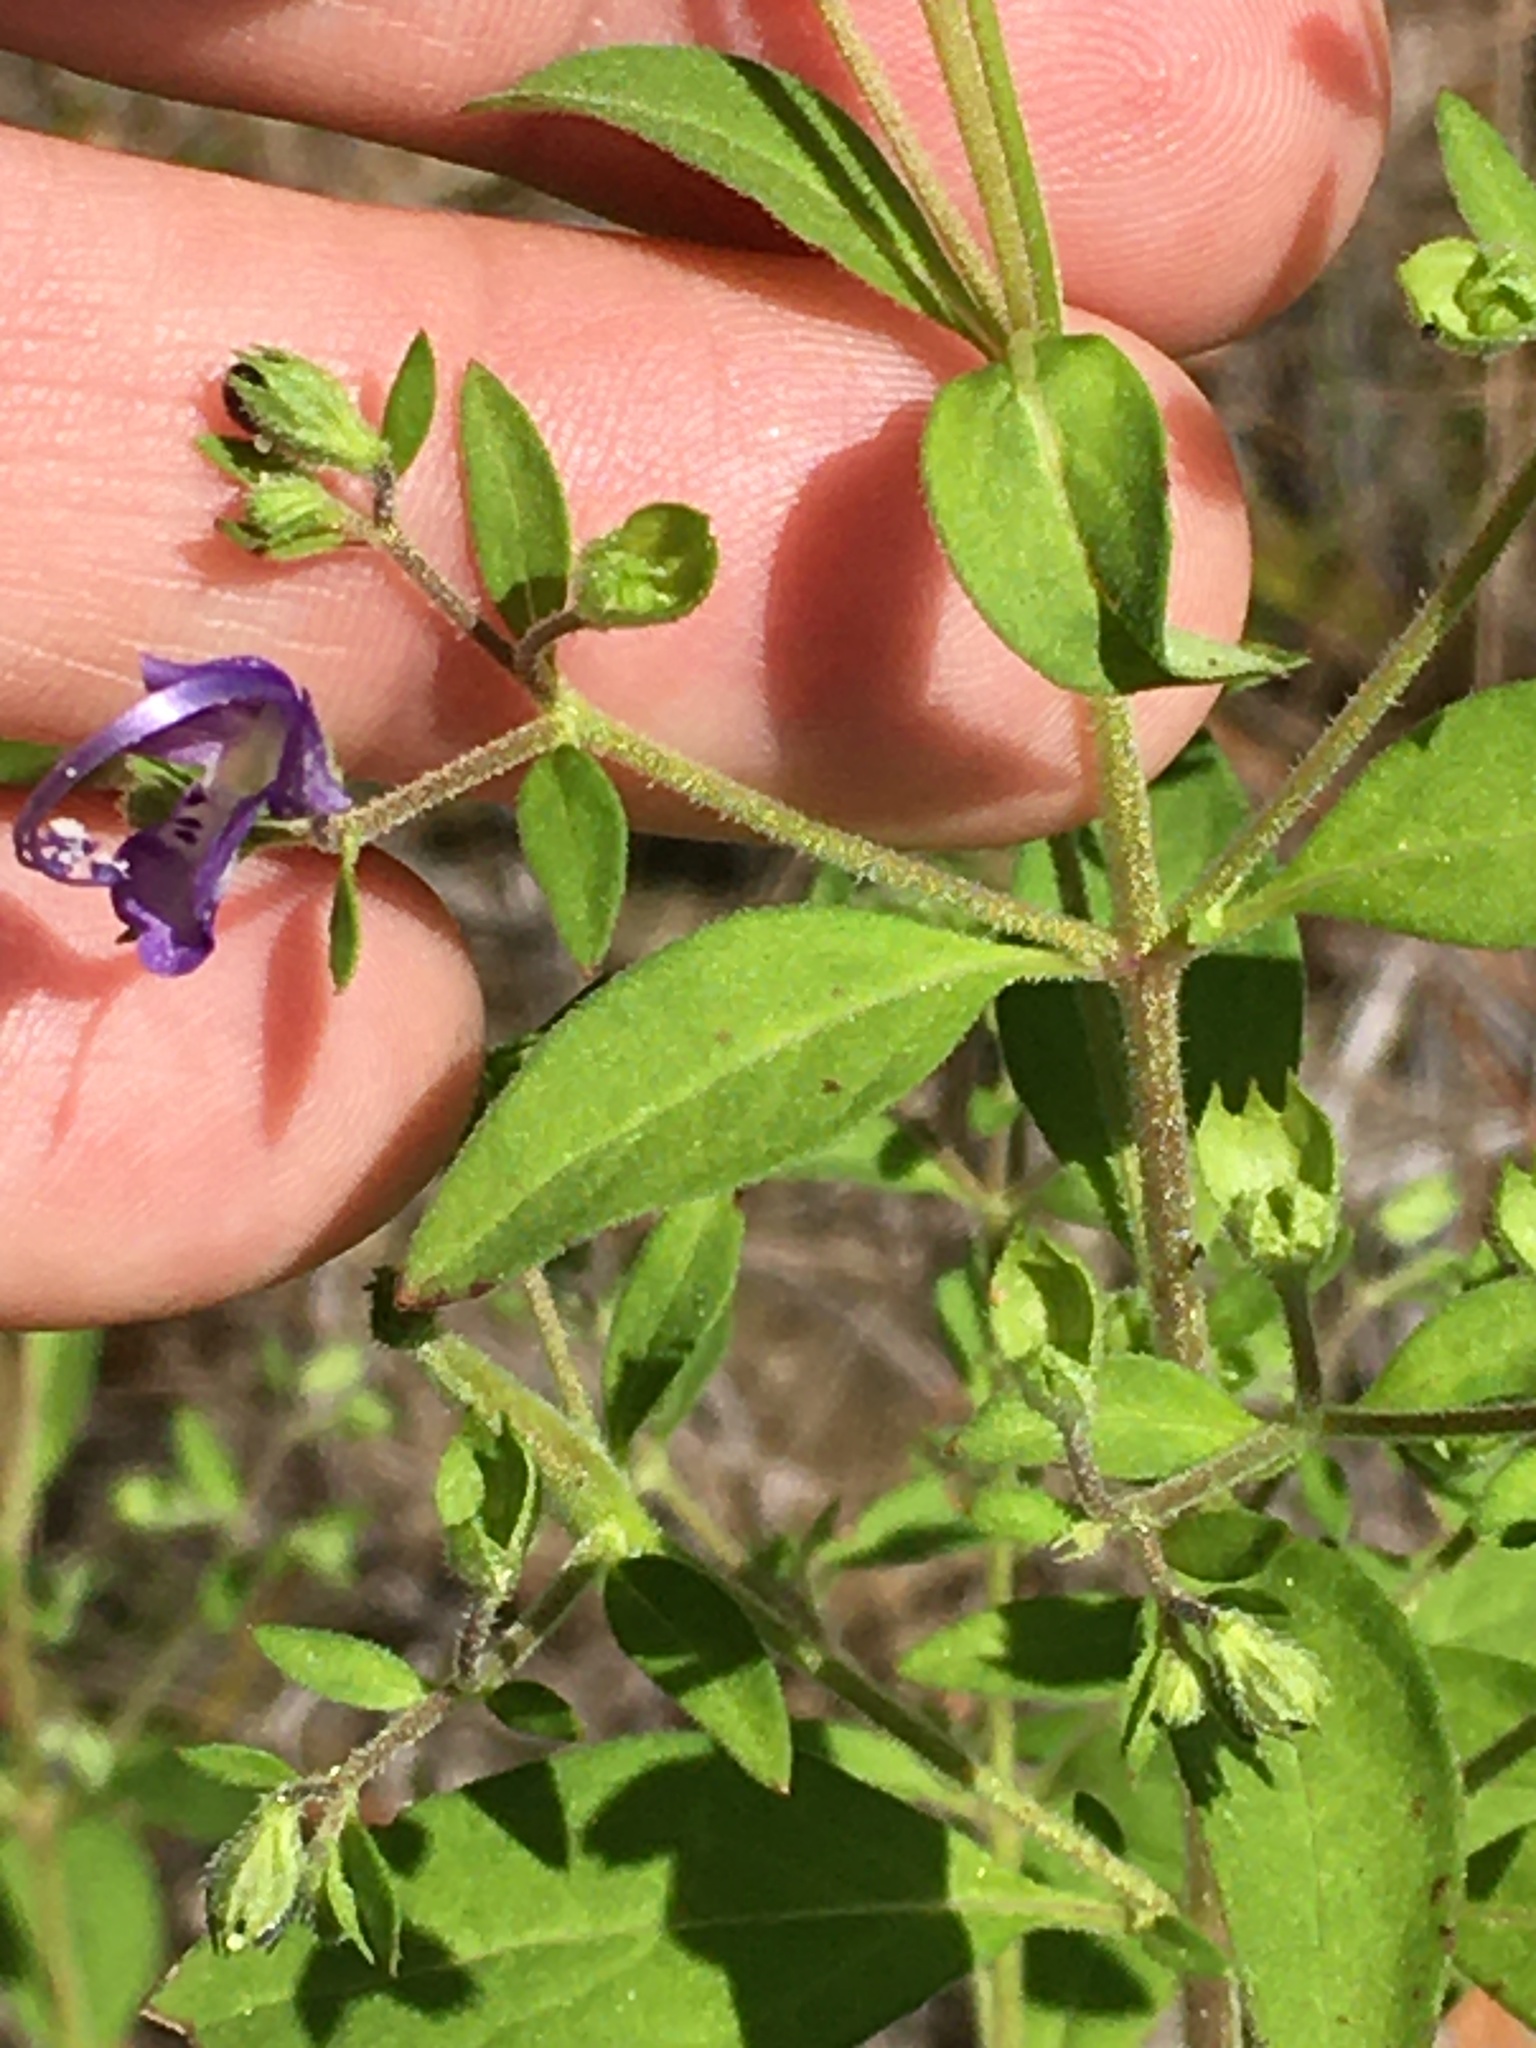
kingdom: Plantae
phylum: Tracheophyta
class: Magnoliopsida
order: Lamiales
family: Lamiaceae
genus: Trichostema
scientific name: Trichostema dichotomum
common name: Bastard pennyroyal
